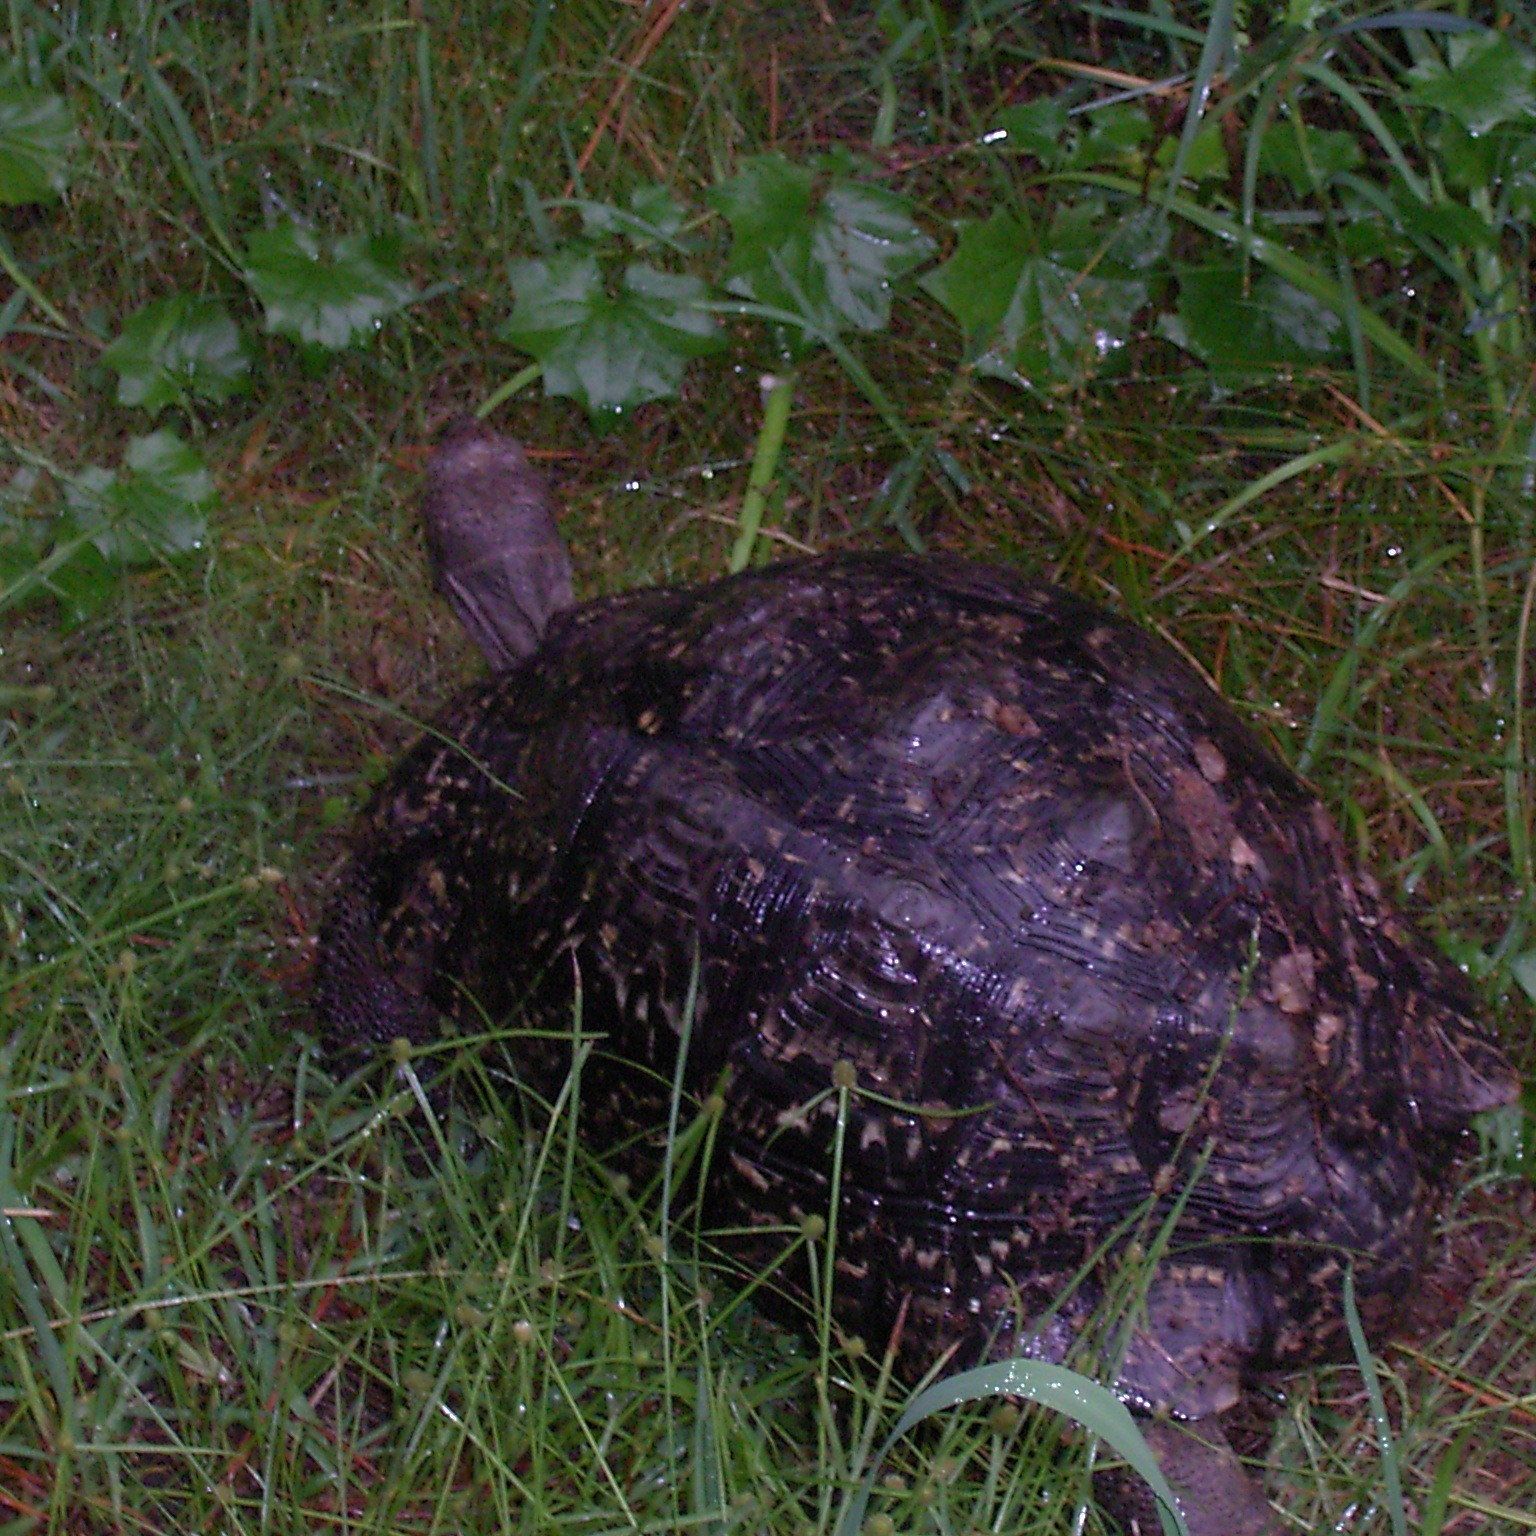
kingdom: Animalia
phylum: Chordata
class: Testudines
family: Testudinidae
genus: Stigmochelys
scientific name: Stigmochelys pardalis
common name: Leopard tortoise
